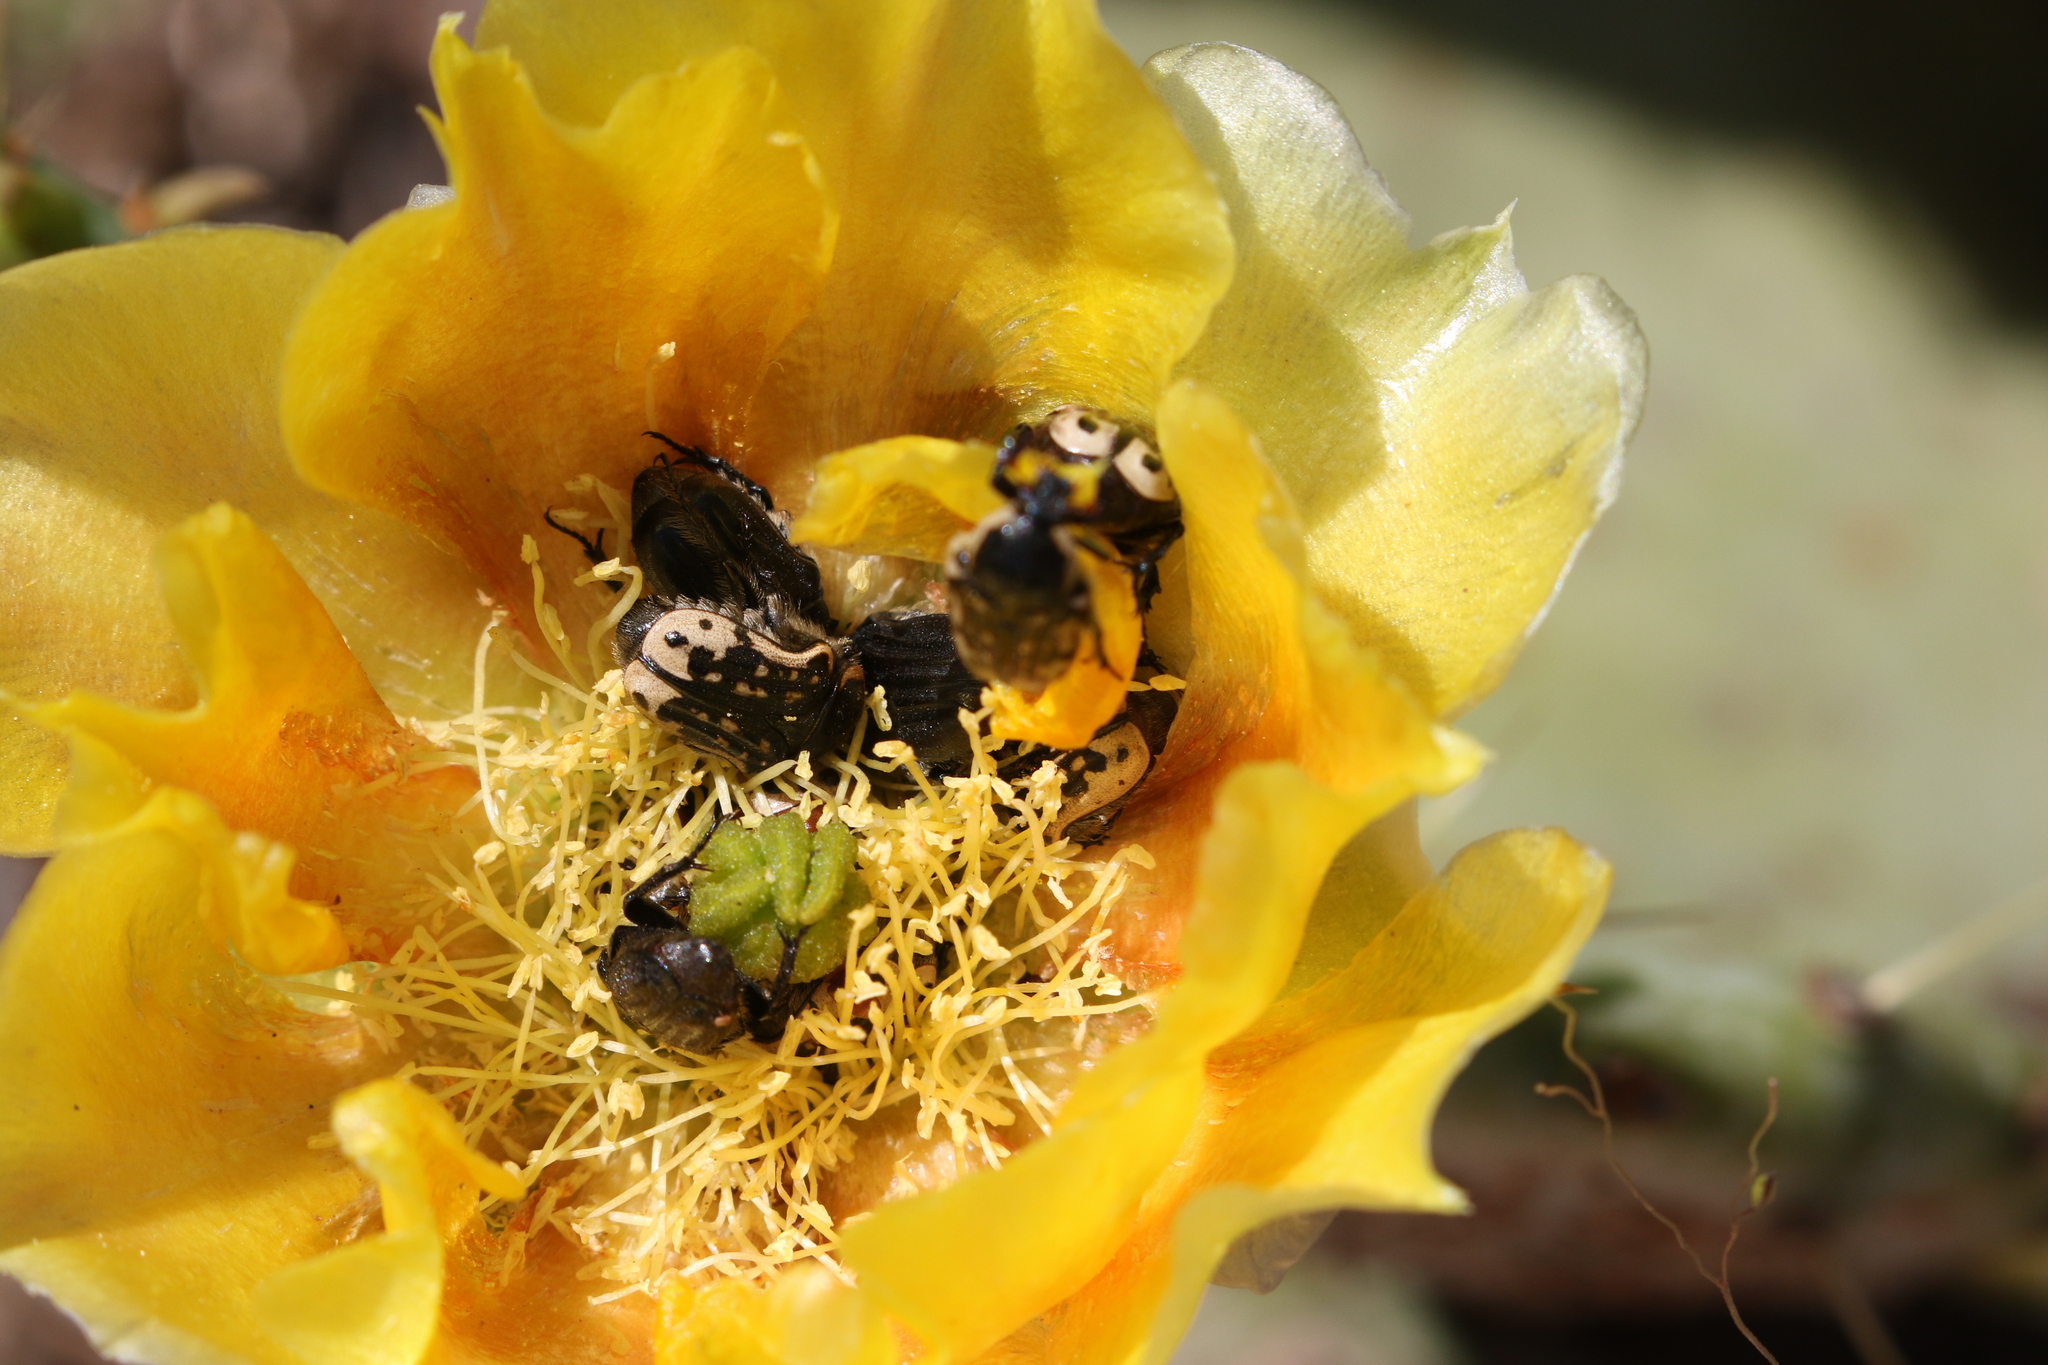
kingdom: Animalia
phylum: Arthropoda
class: Insecta
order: Coleoptera
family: Scarabaeidae
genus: Euphoria
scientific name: Euphoria kernii
